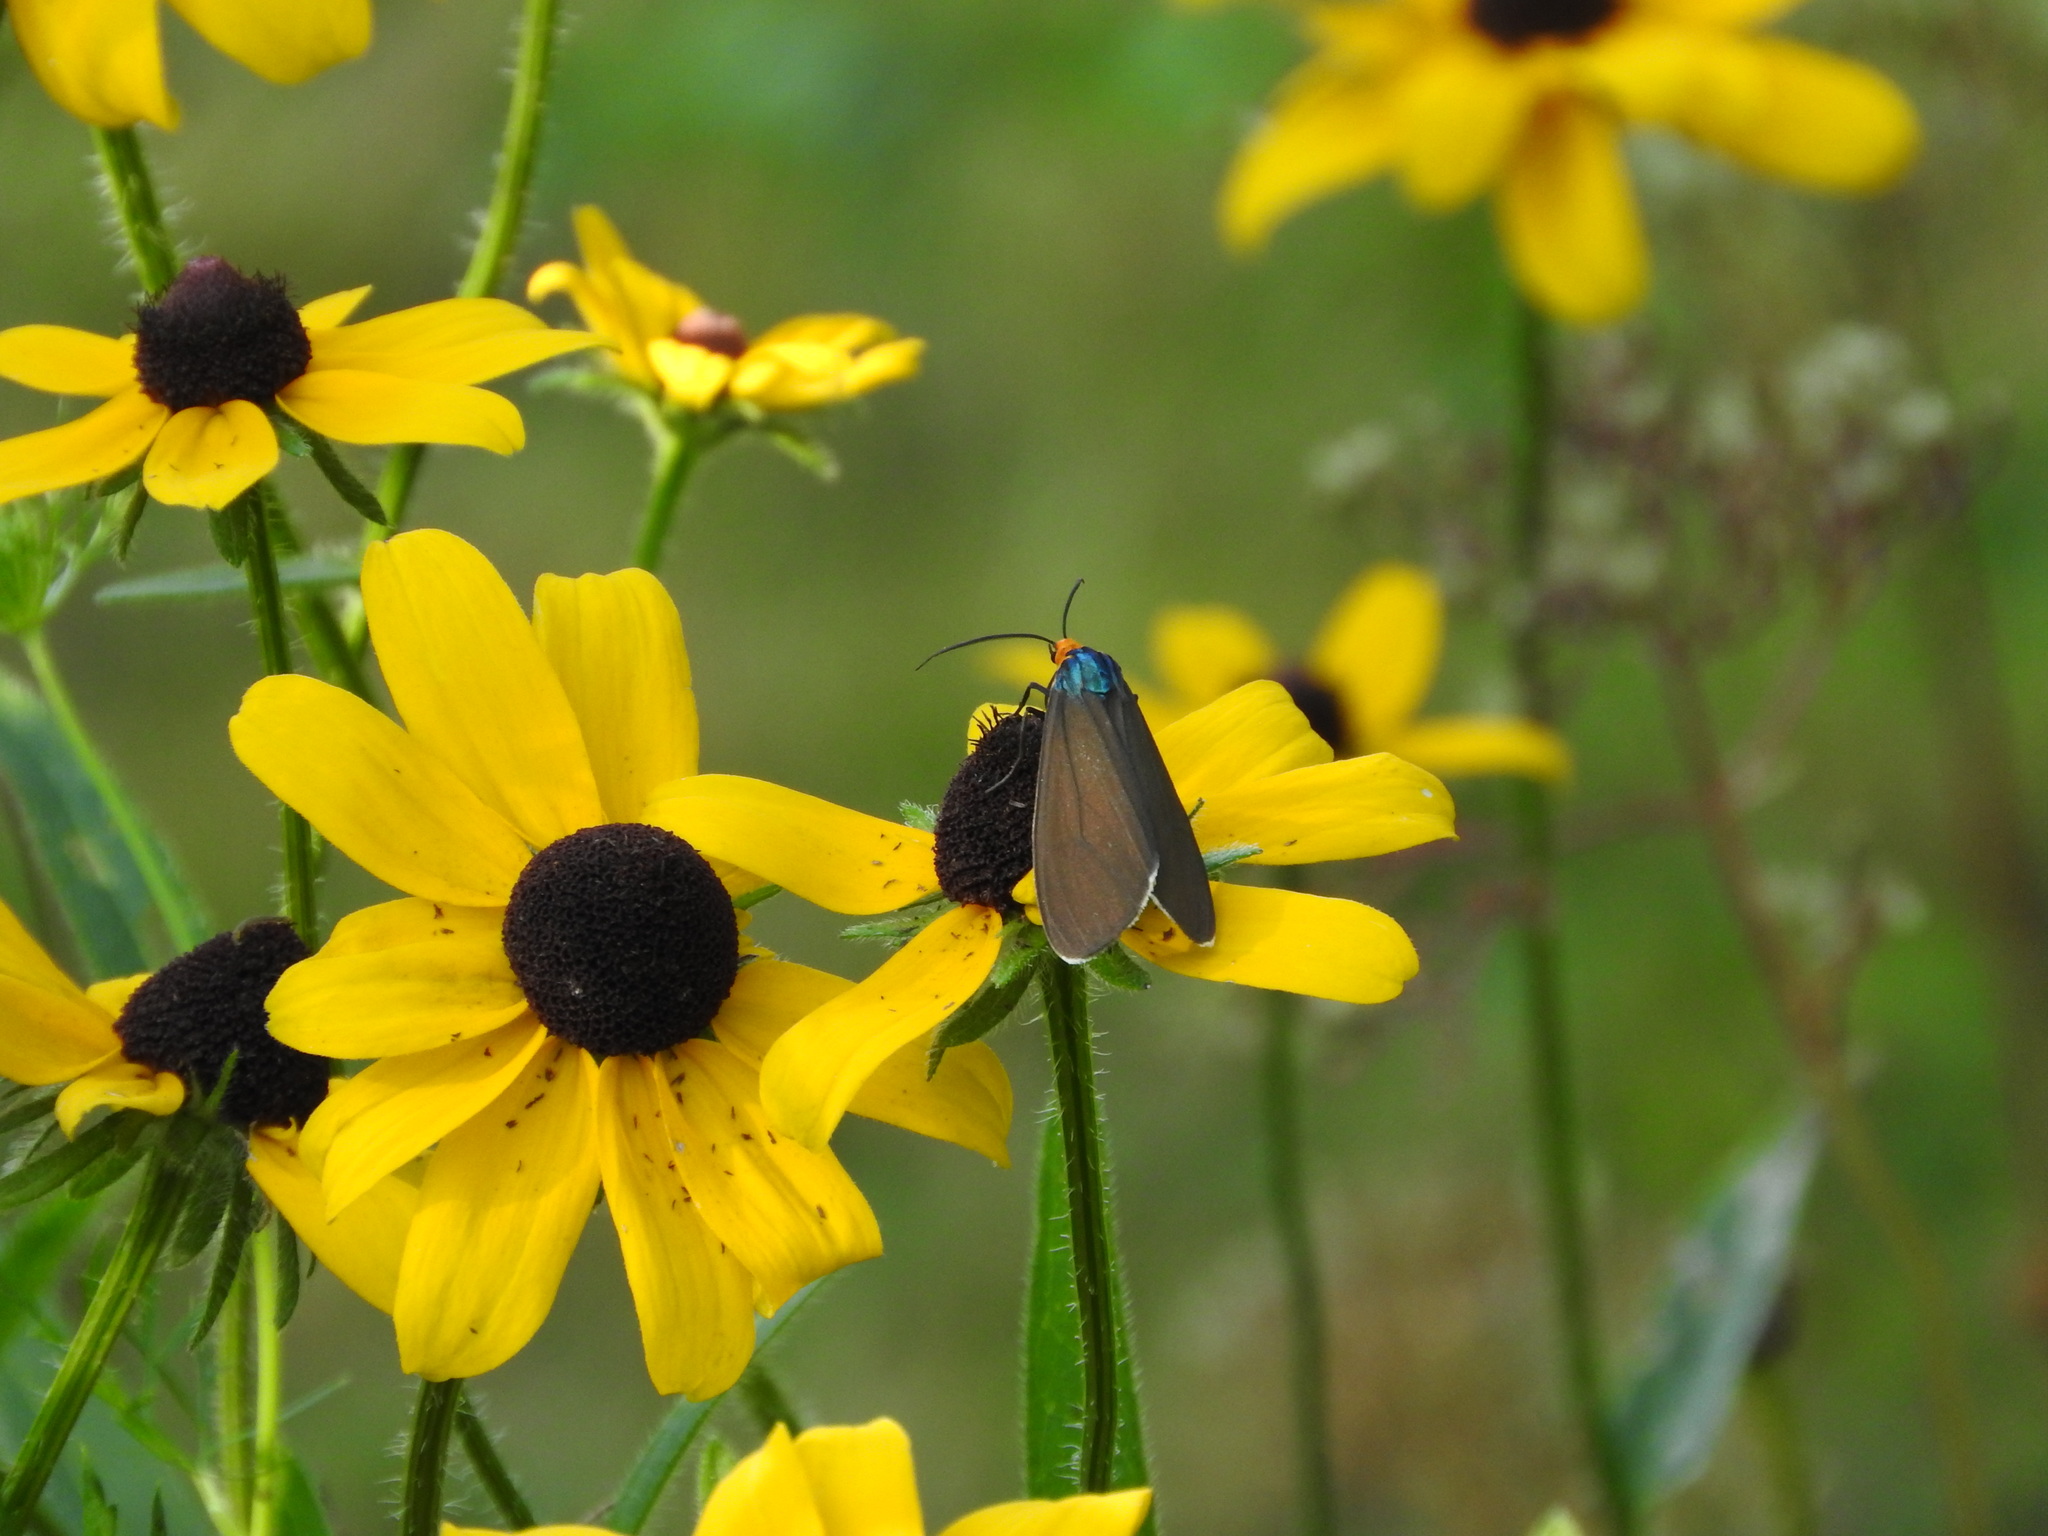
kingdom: Animalia
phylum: Arthropoda
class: Insecta
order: Lepidoptera
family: Erebidae
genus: Ctenucha
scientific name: Ctenucha virginica
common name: Virginia ctenucha moth
